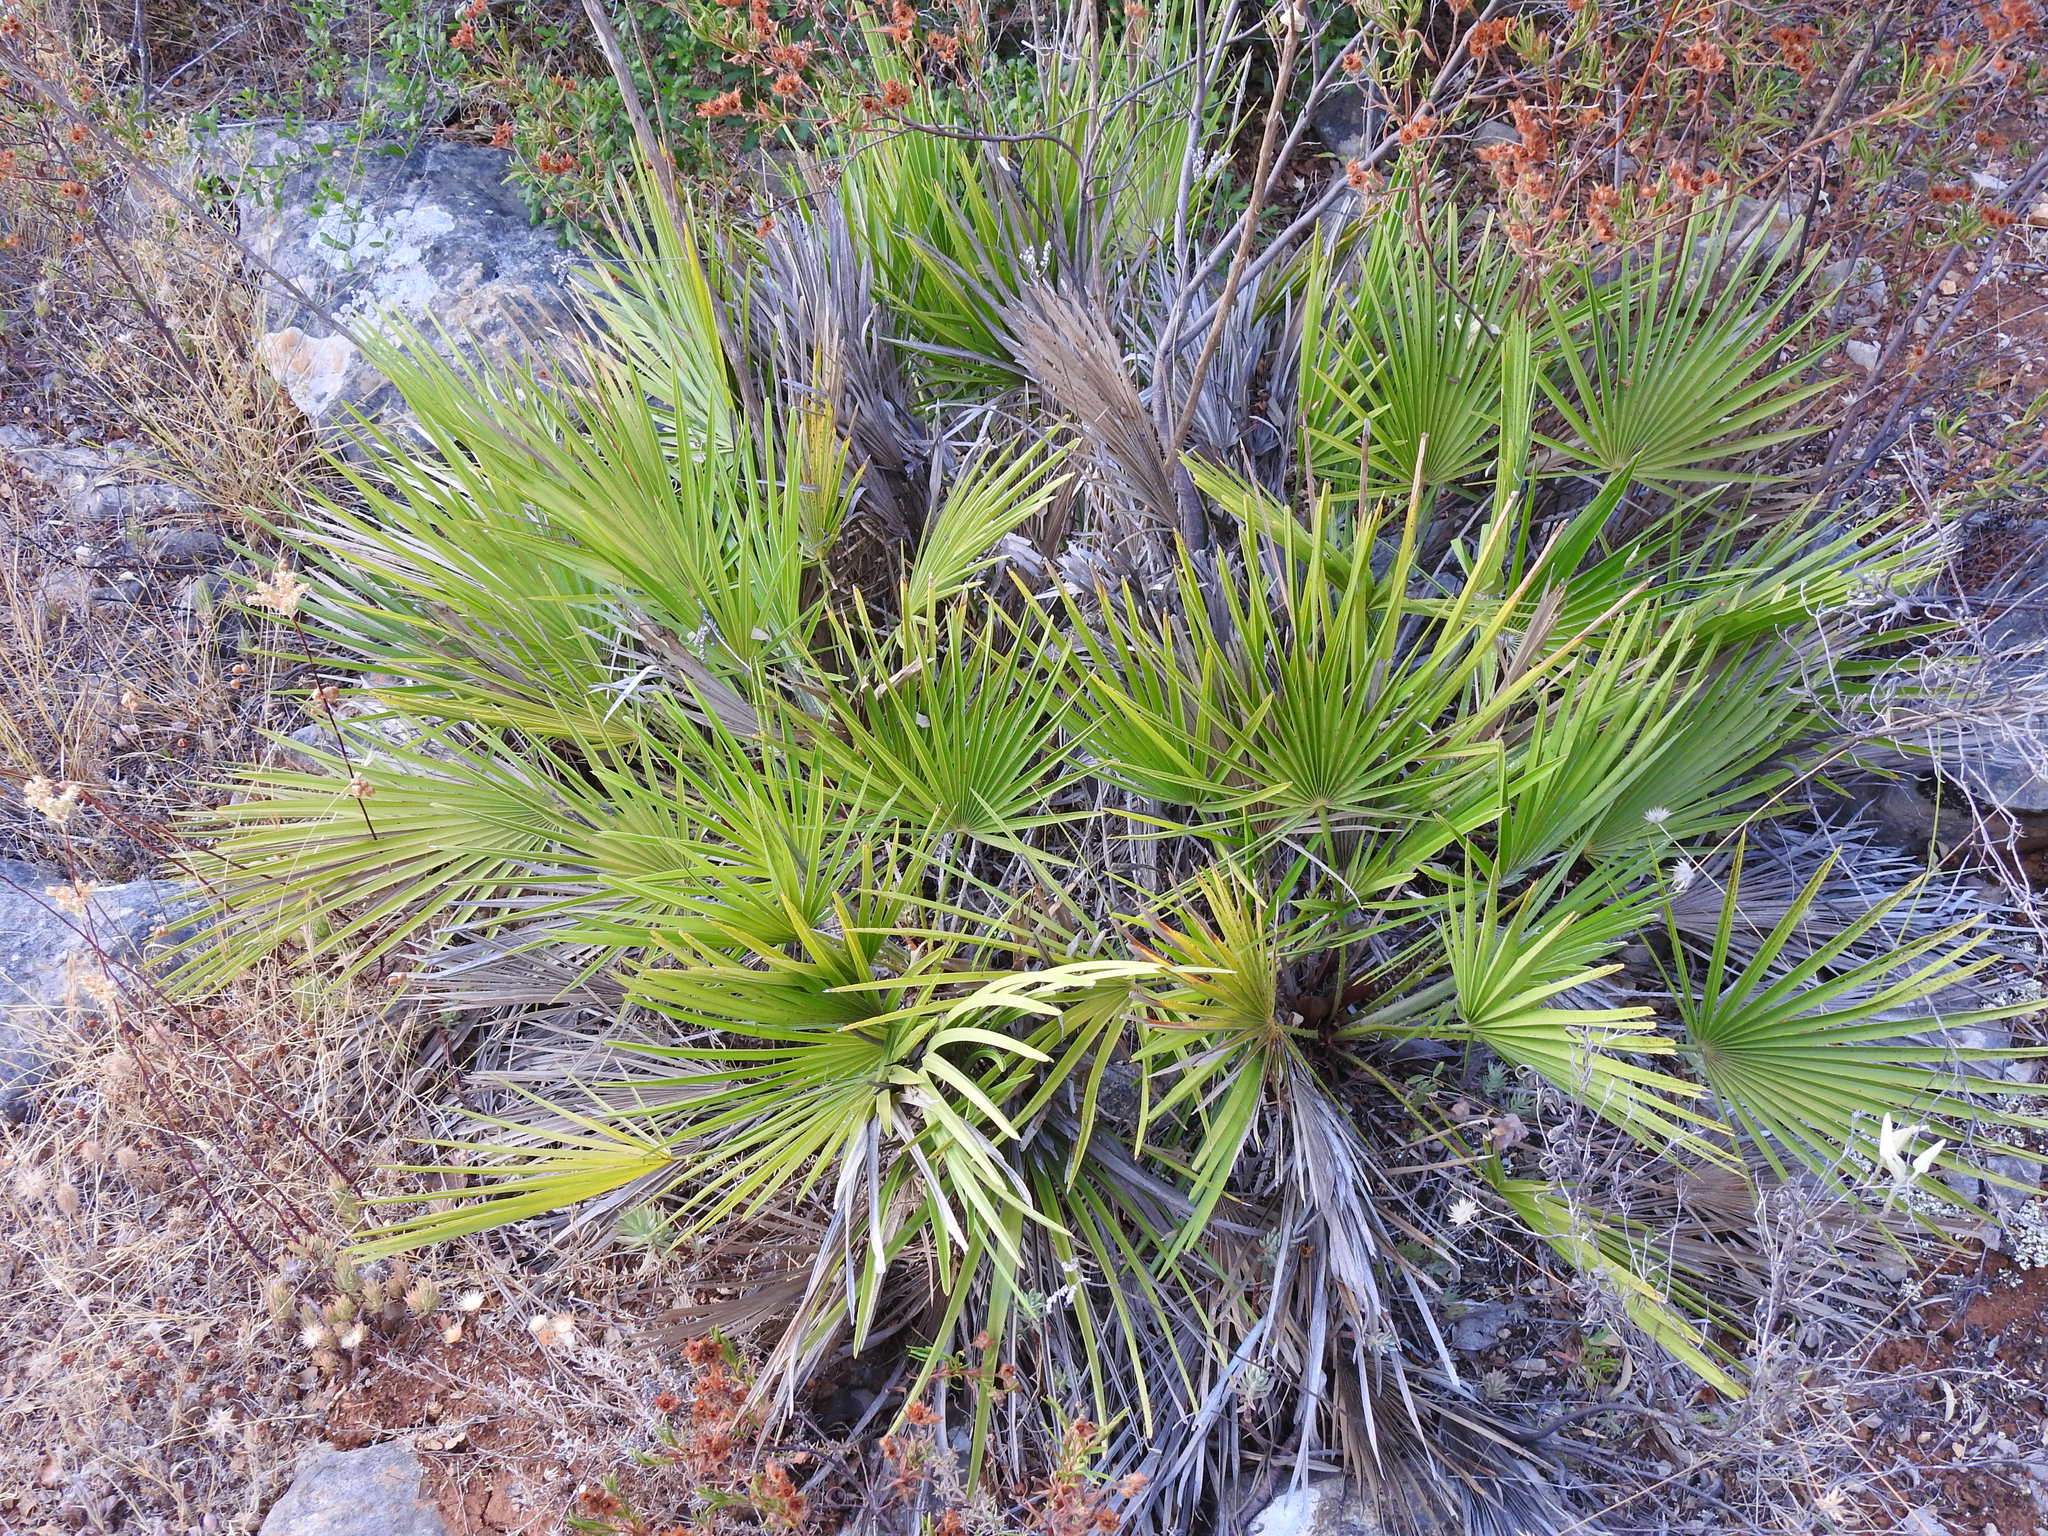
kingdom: Plantae
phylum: Tracheophyta
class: Liliopsida
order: Arecales
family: Arecaceae
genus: Chamaerops
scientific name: Chamaerops humilis
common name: Dwarf fan palm
